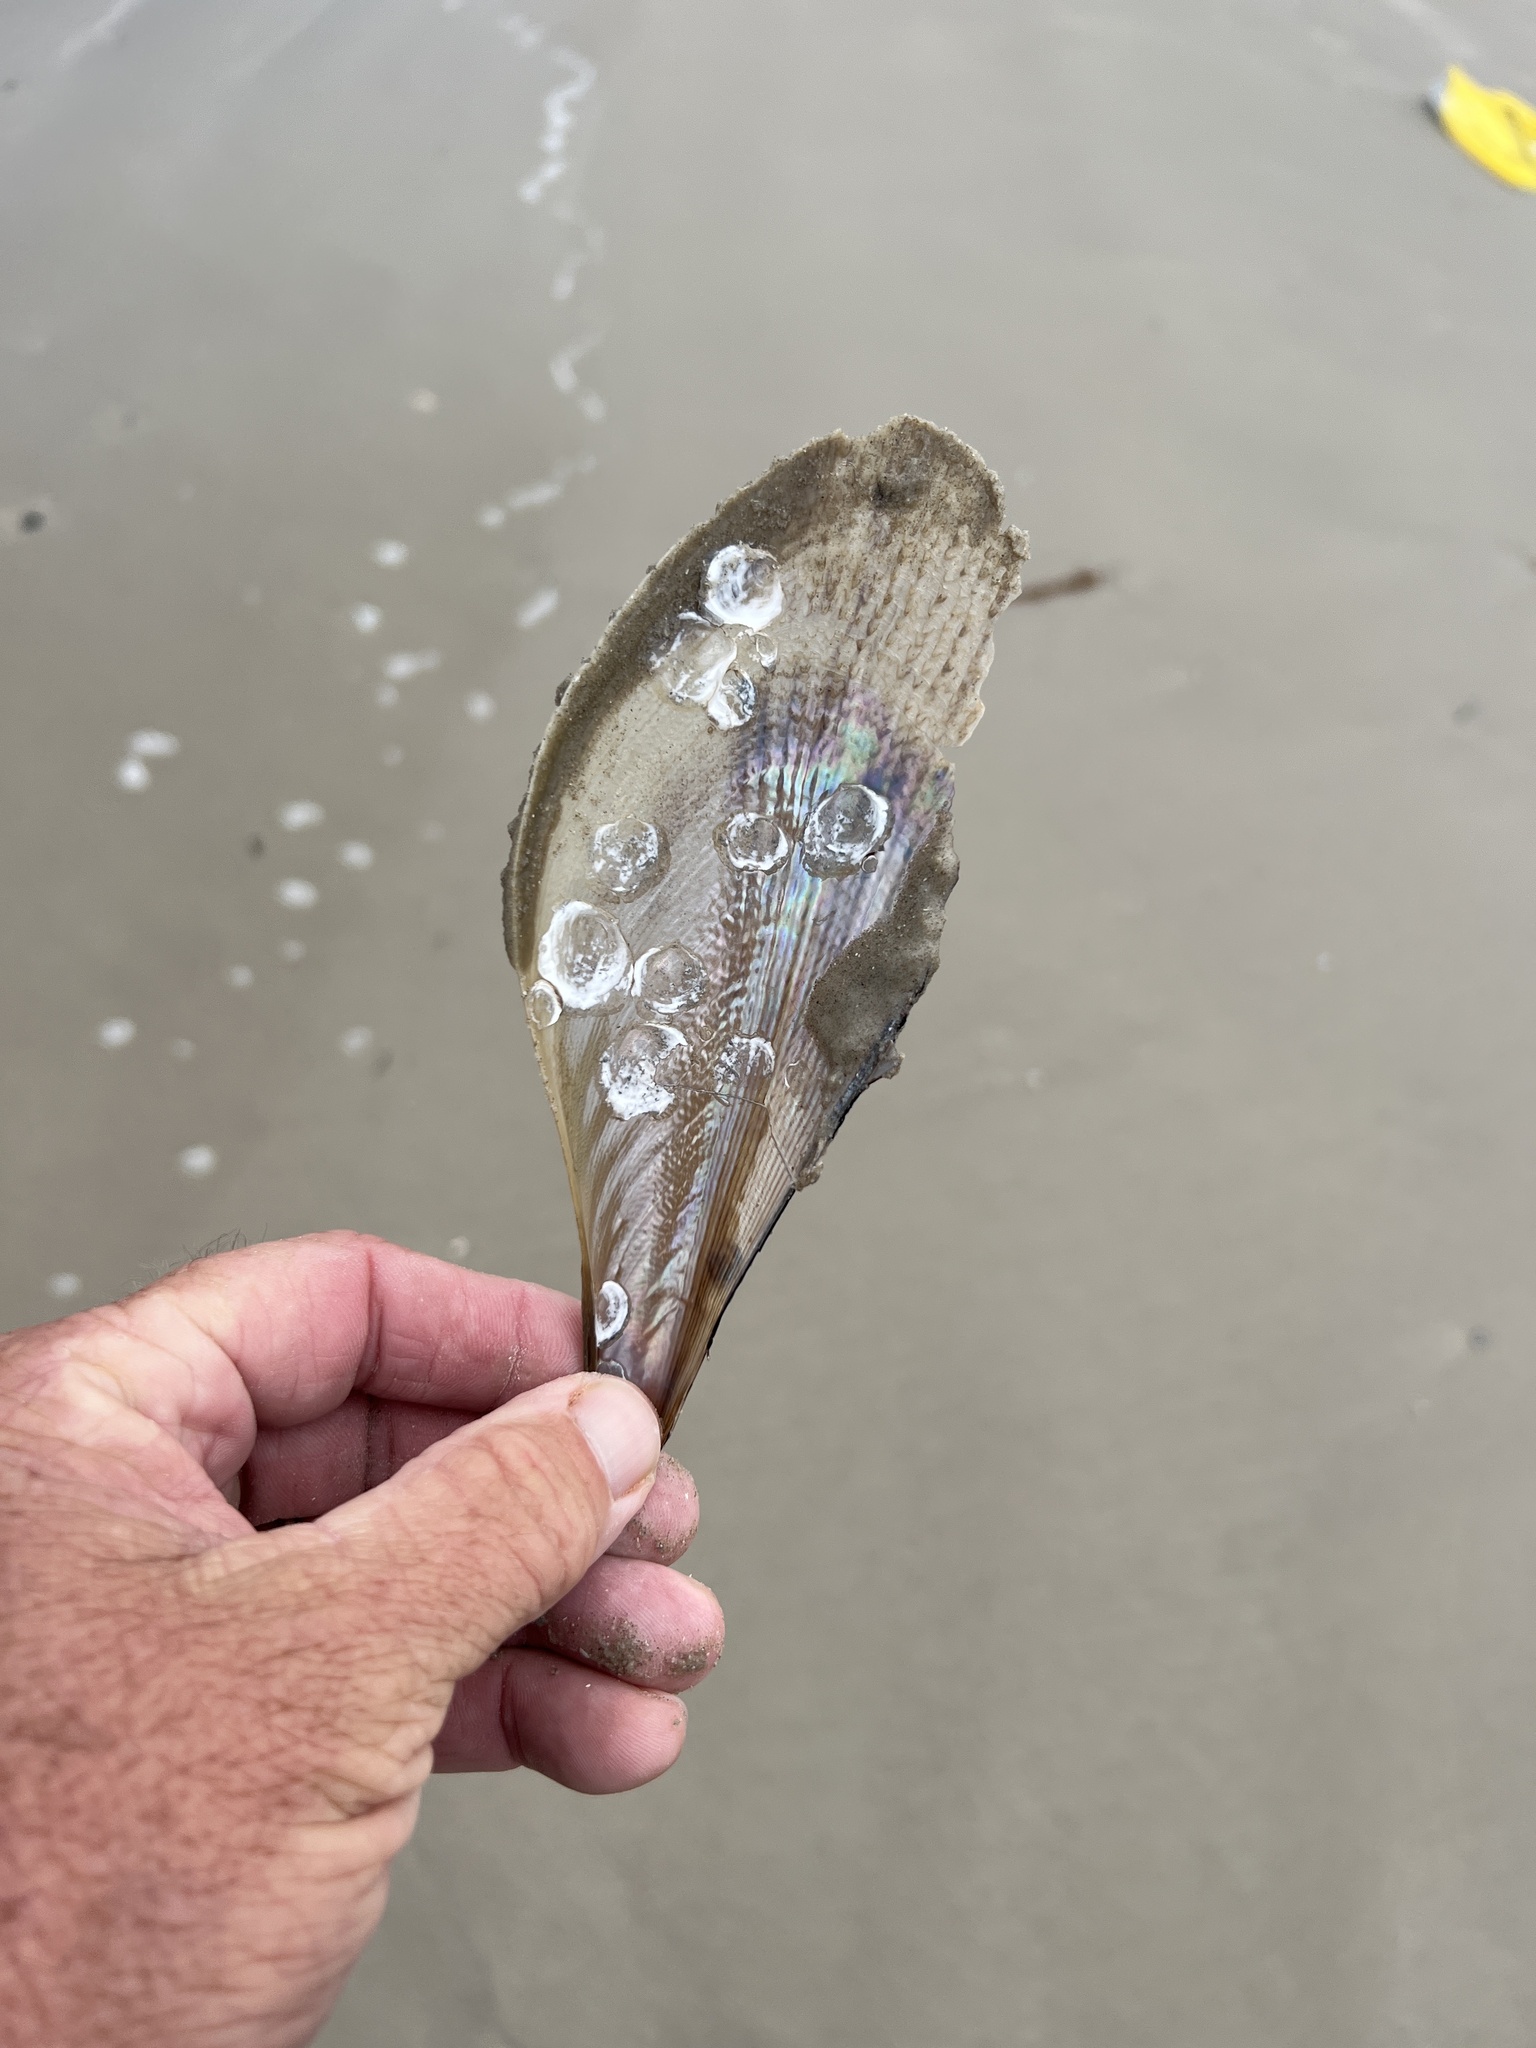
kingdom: Animalia
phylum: Mollusca
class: Bivalvia
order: Ostreida
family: Pinnidae
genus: Atrina
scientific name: Atrina serrata
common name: Saw-toothed penshell
